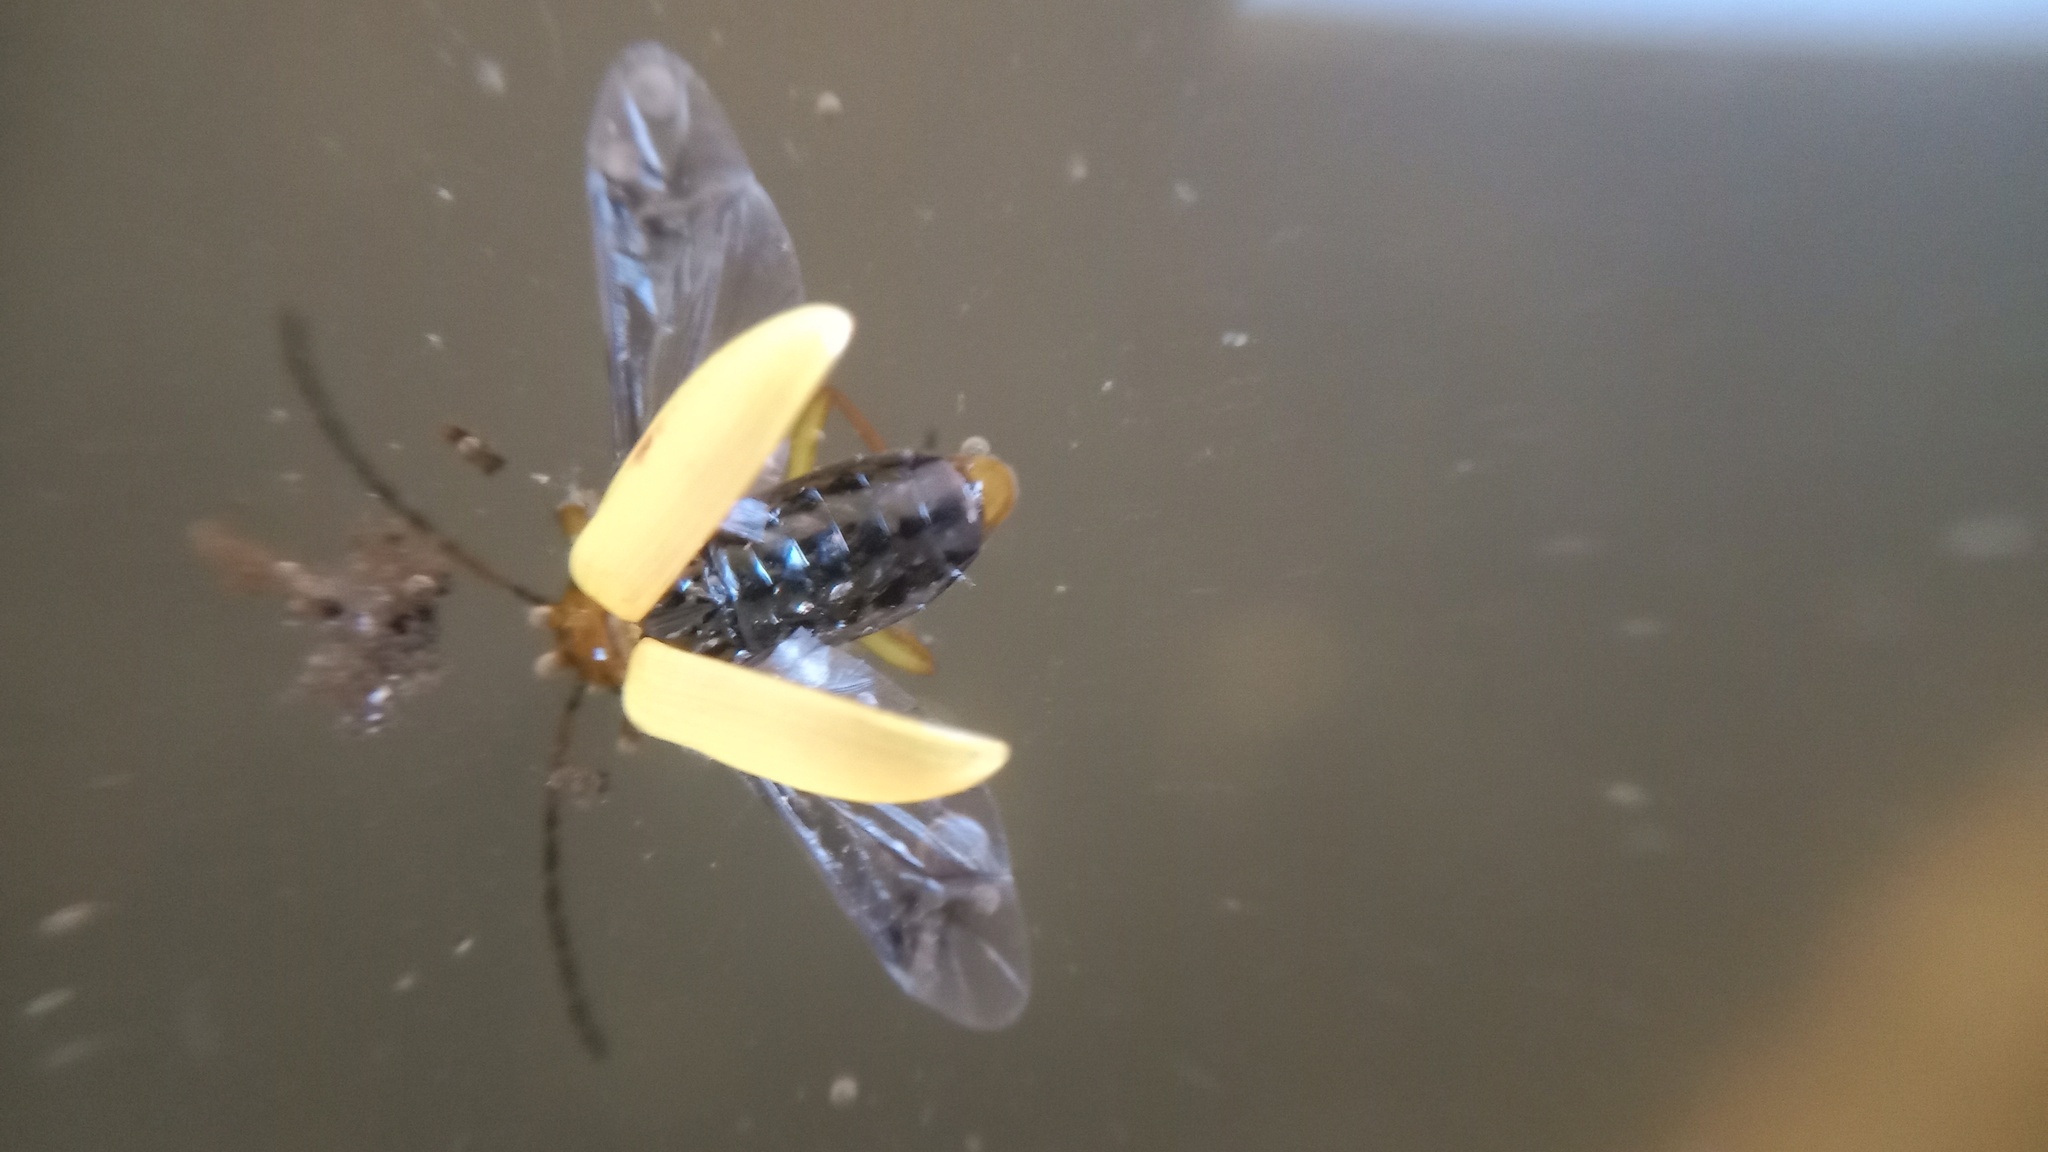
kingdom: Animalia
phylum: Arthropoda
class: Insecta
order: Coleoptera
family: Tenebrionidae
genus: Cteniopus
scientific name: Cteniopus sulphureus
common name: Sulphur beetle
